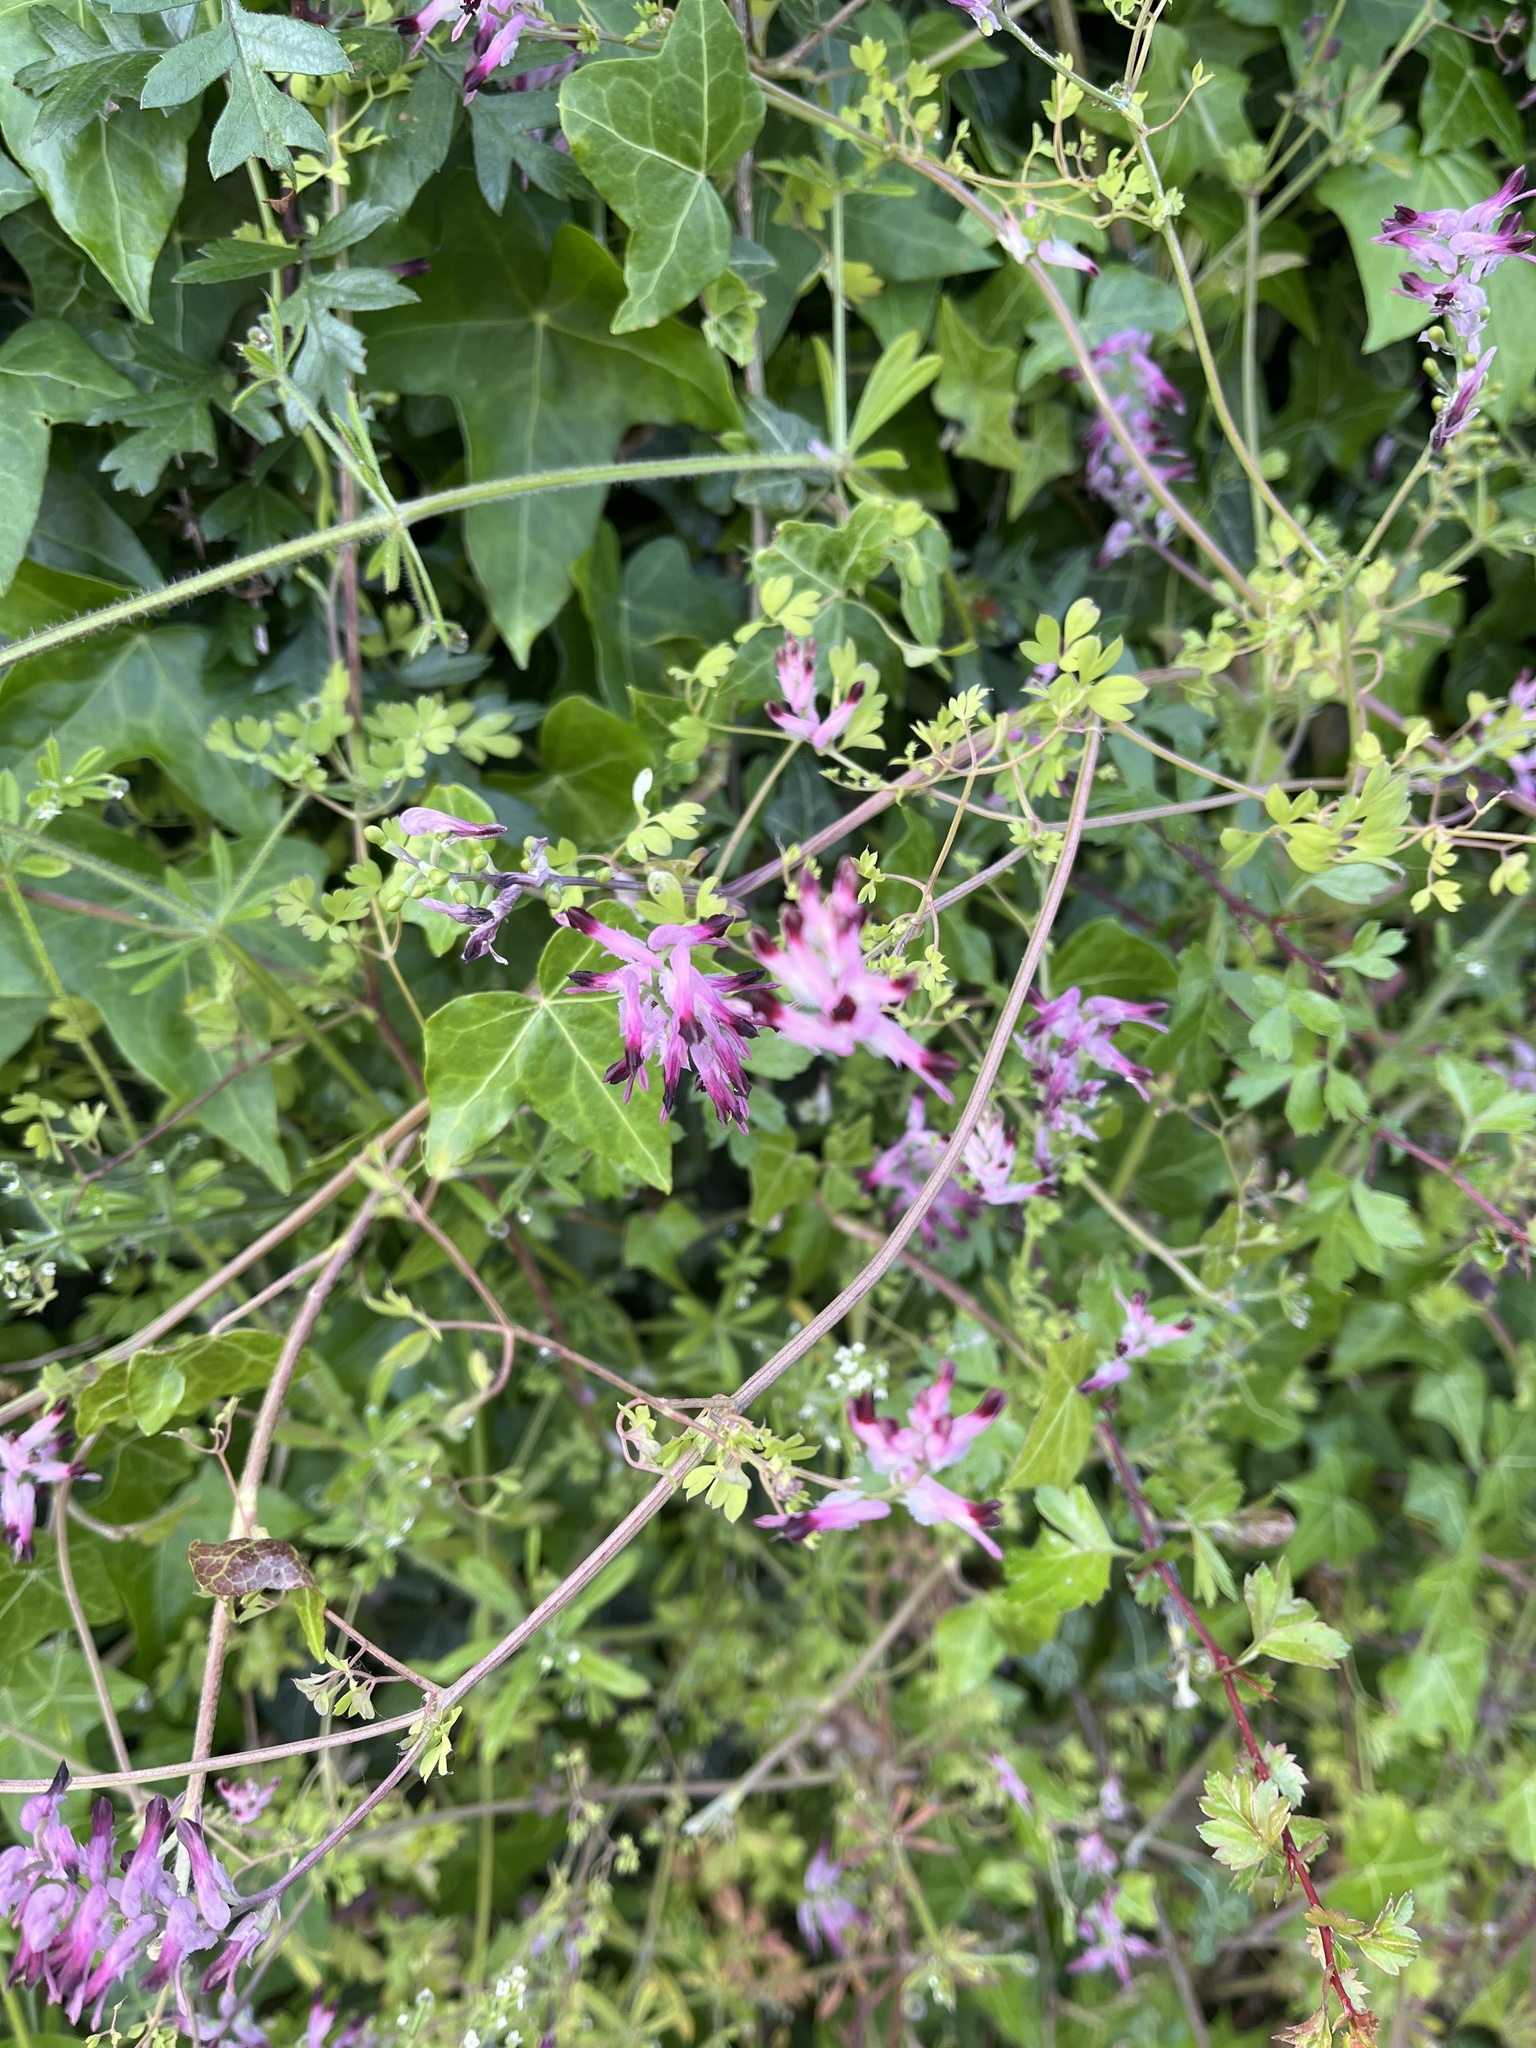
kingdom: Plantae
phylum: Tracheophyta
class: Magnoliopsida
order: Ranunculales
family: Papaveraceae
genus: Fumaria
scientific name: Fumaria muralis
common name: Common ramping-fumitory
